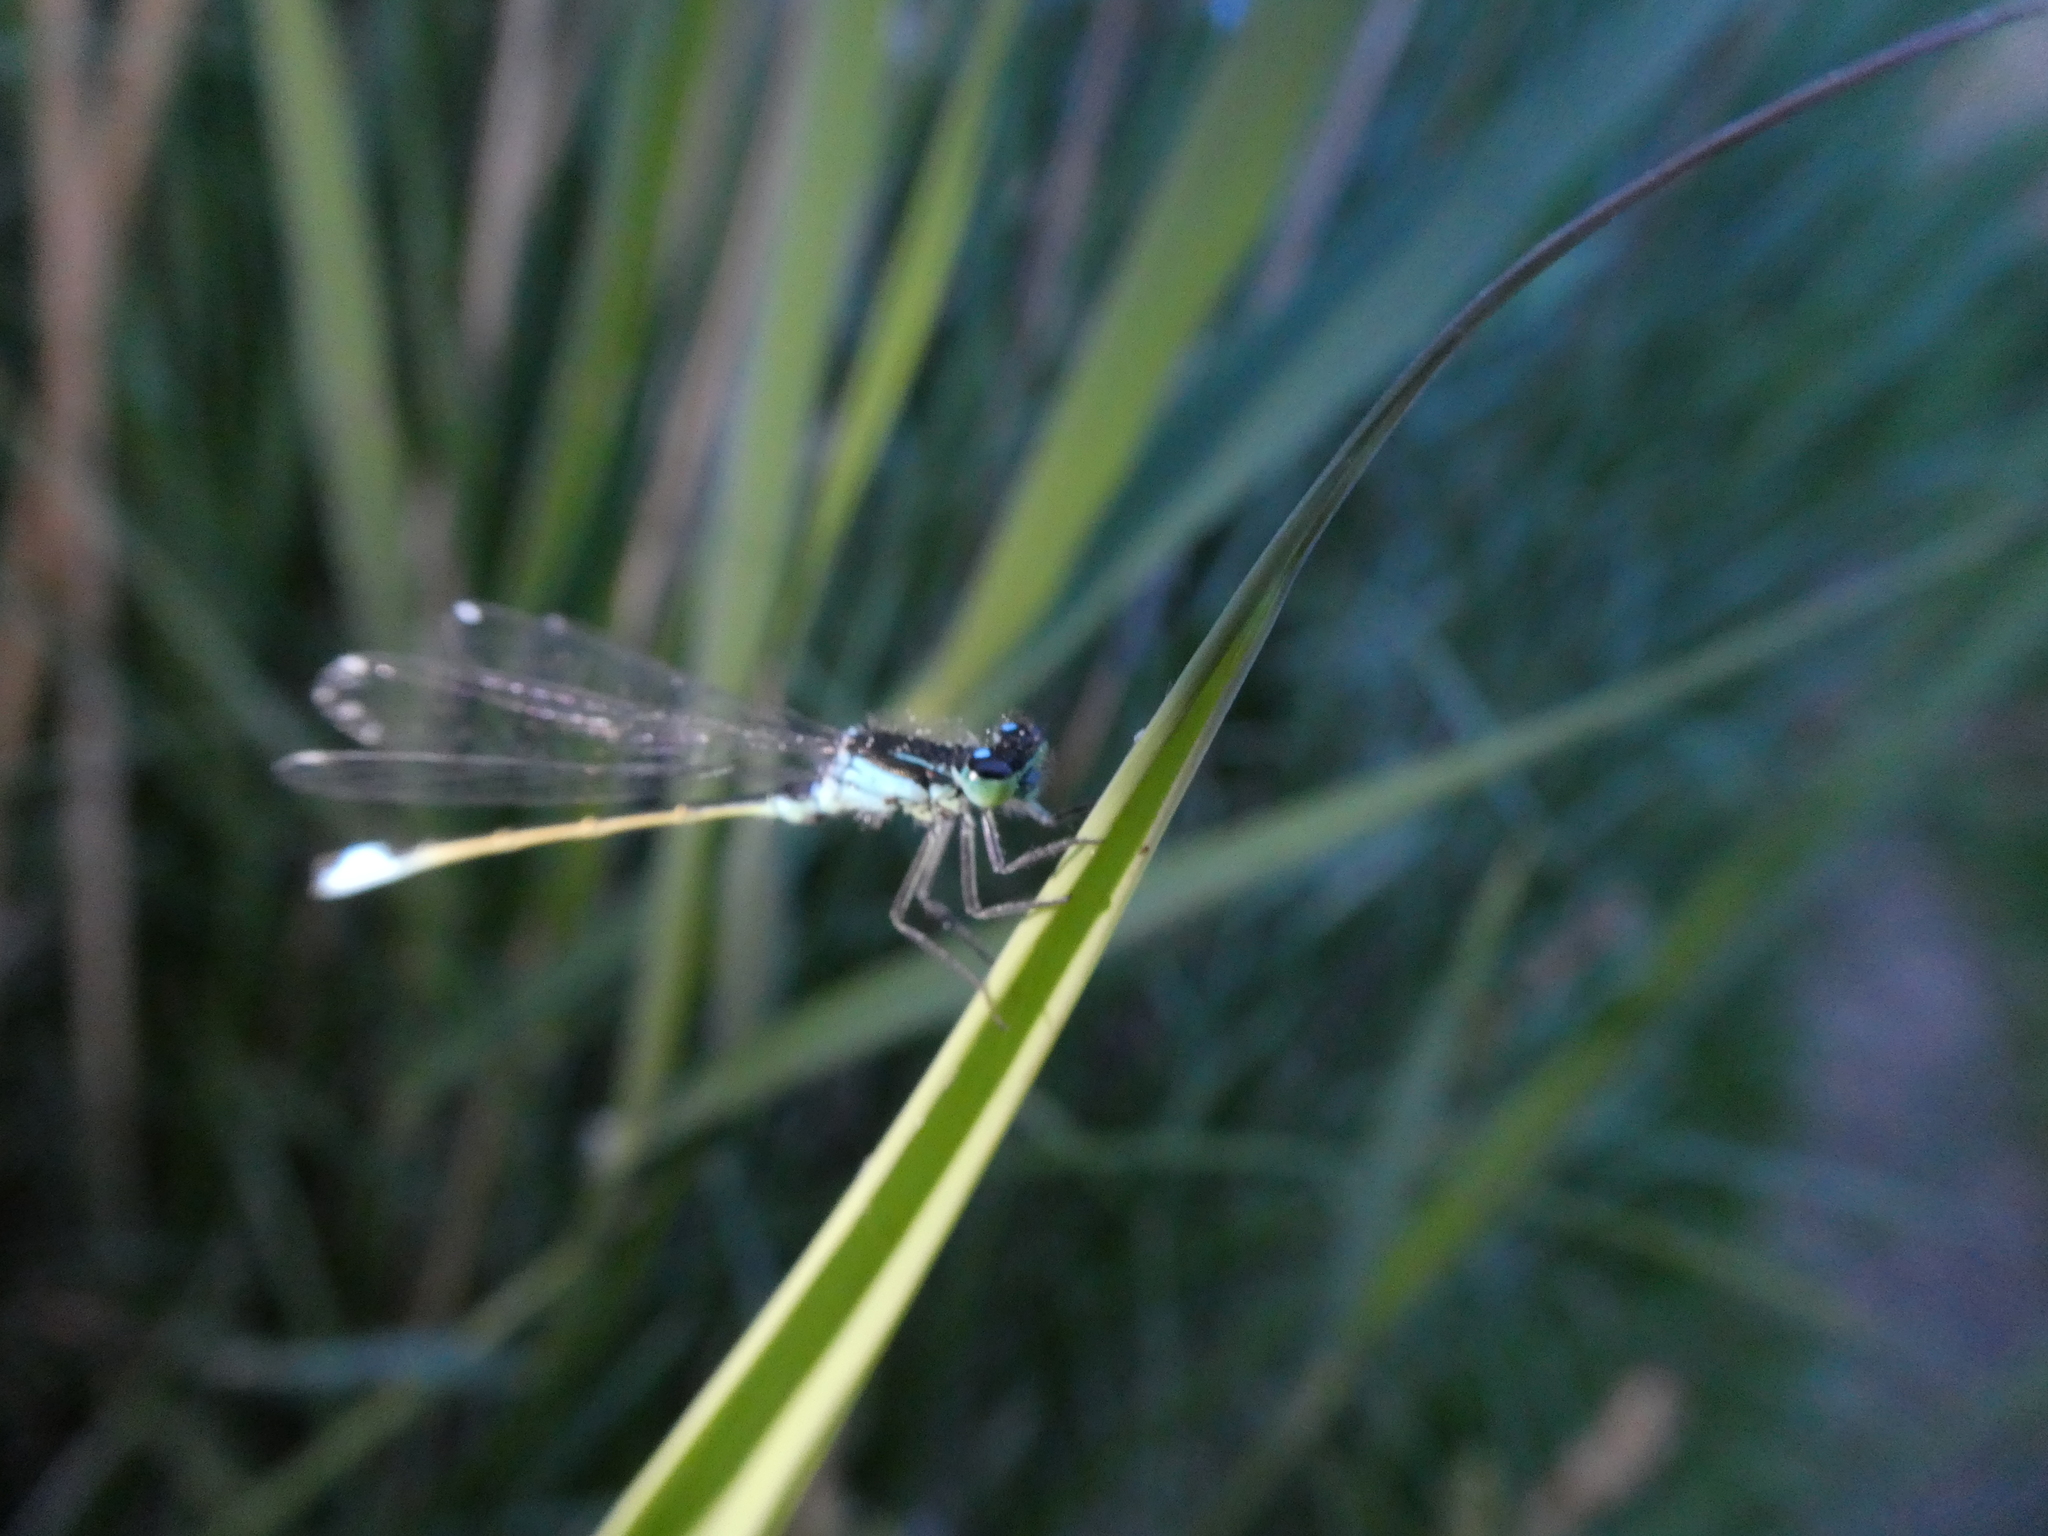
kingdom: Animalia
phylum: Arthropoda
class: Insecta
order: Odonata
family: Coenagrionidae
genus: Ischnura
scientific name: Ischnura elegans
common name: Blue-tailed damselfly
